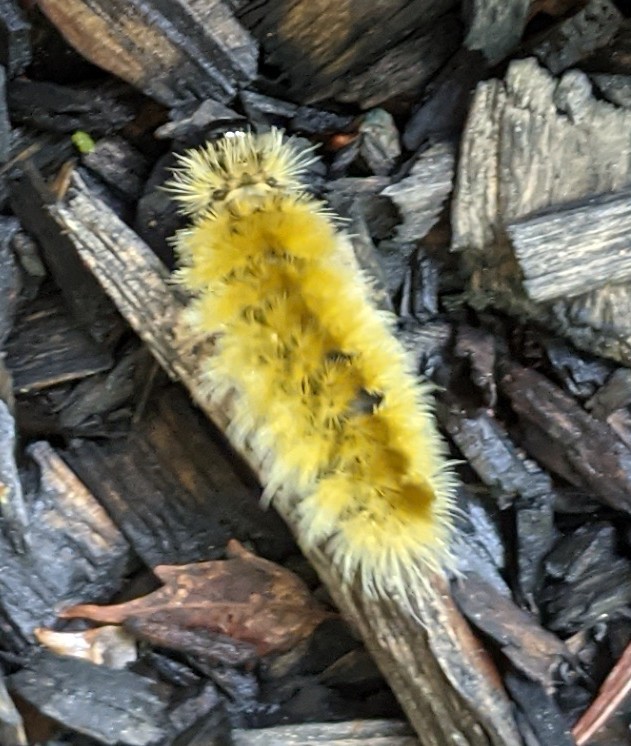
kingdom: Animalia
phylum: Arthropoda
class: Insecta
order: Lepidoptera
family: Erebidae
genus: Halysidota
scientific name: Halysidota tessellaris
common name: Banded tussock moth
